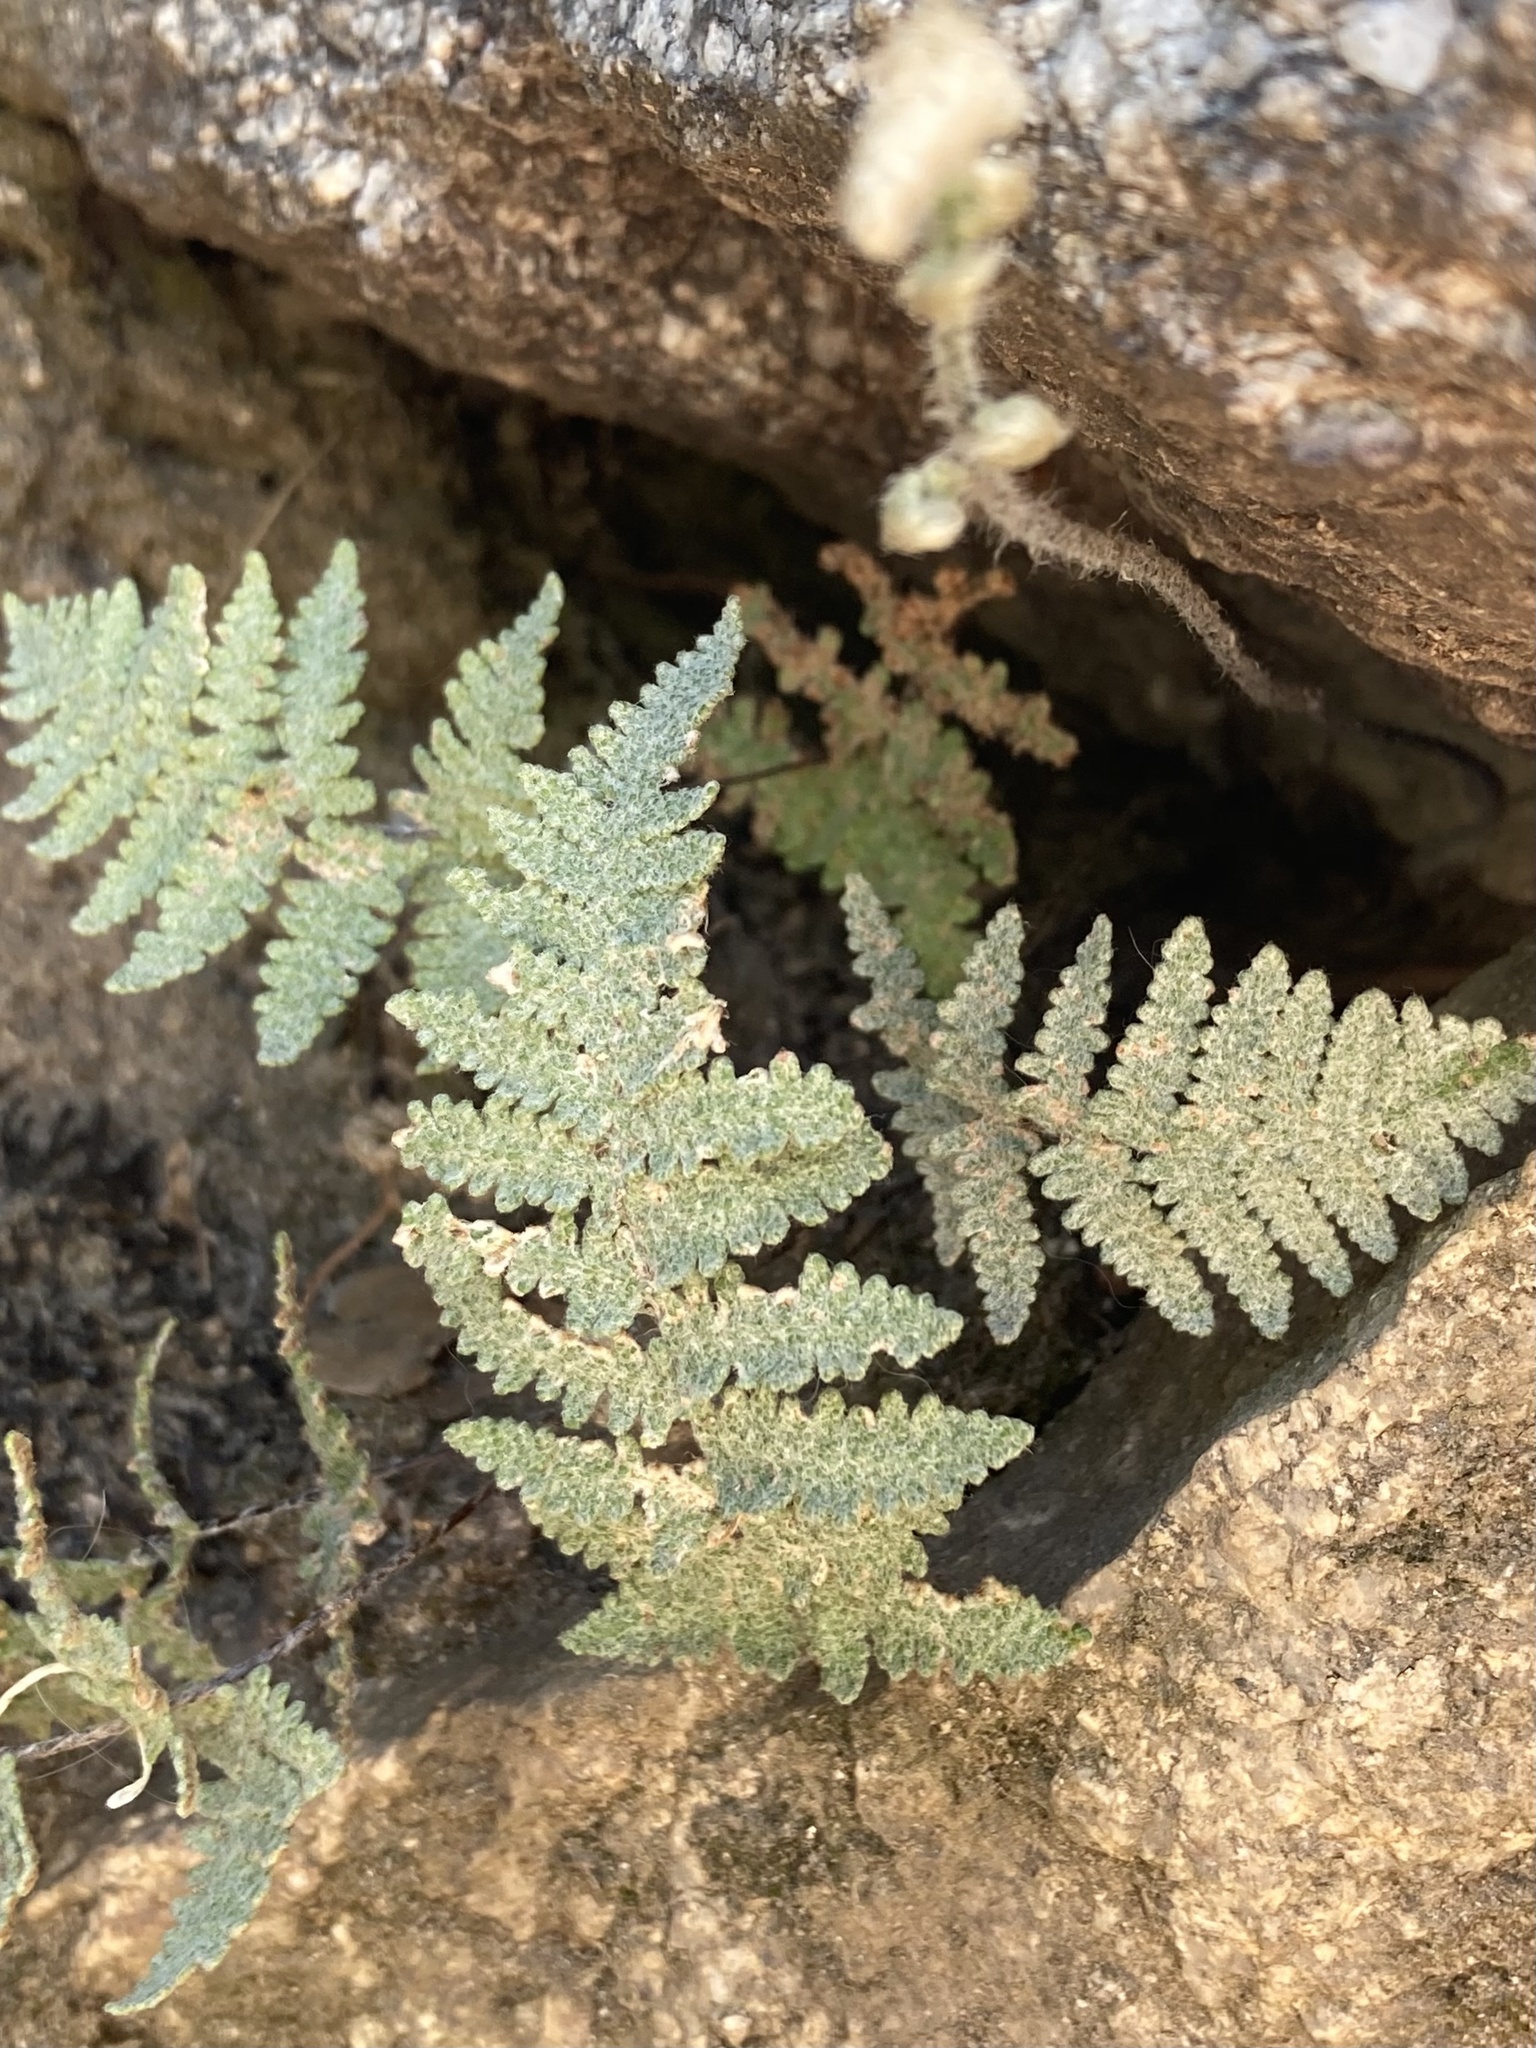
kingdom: Plantae
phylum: Tracheophyta
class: Polypodiopsida
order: Polypodiales
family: Pteridaceae
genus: Myriopteris
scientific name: Myriopteris lindheimeri
